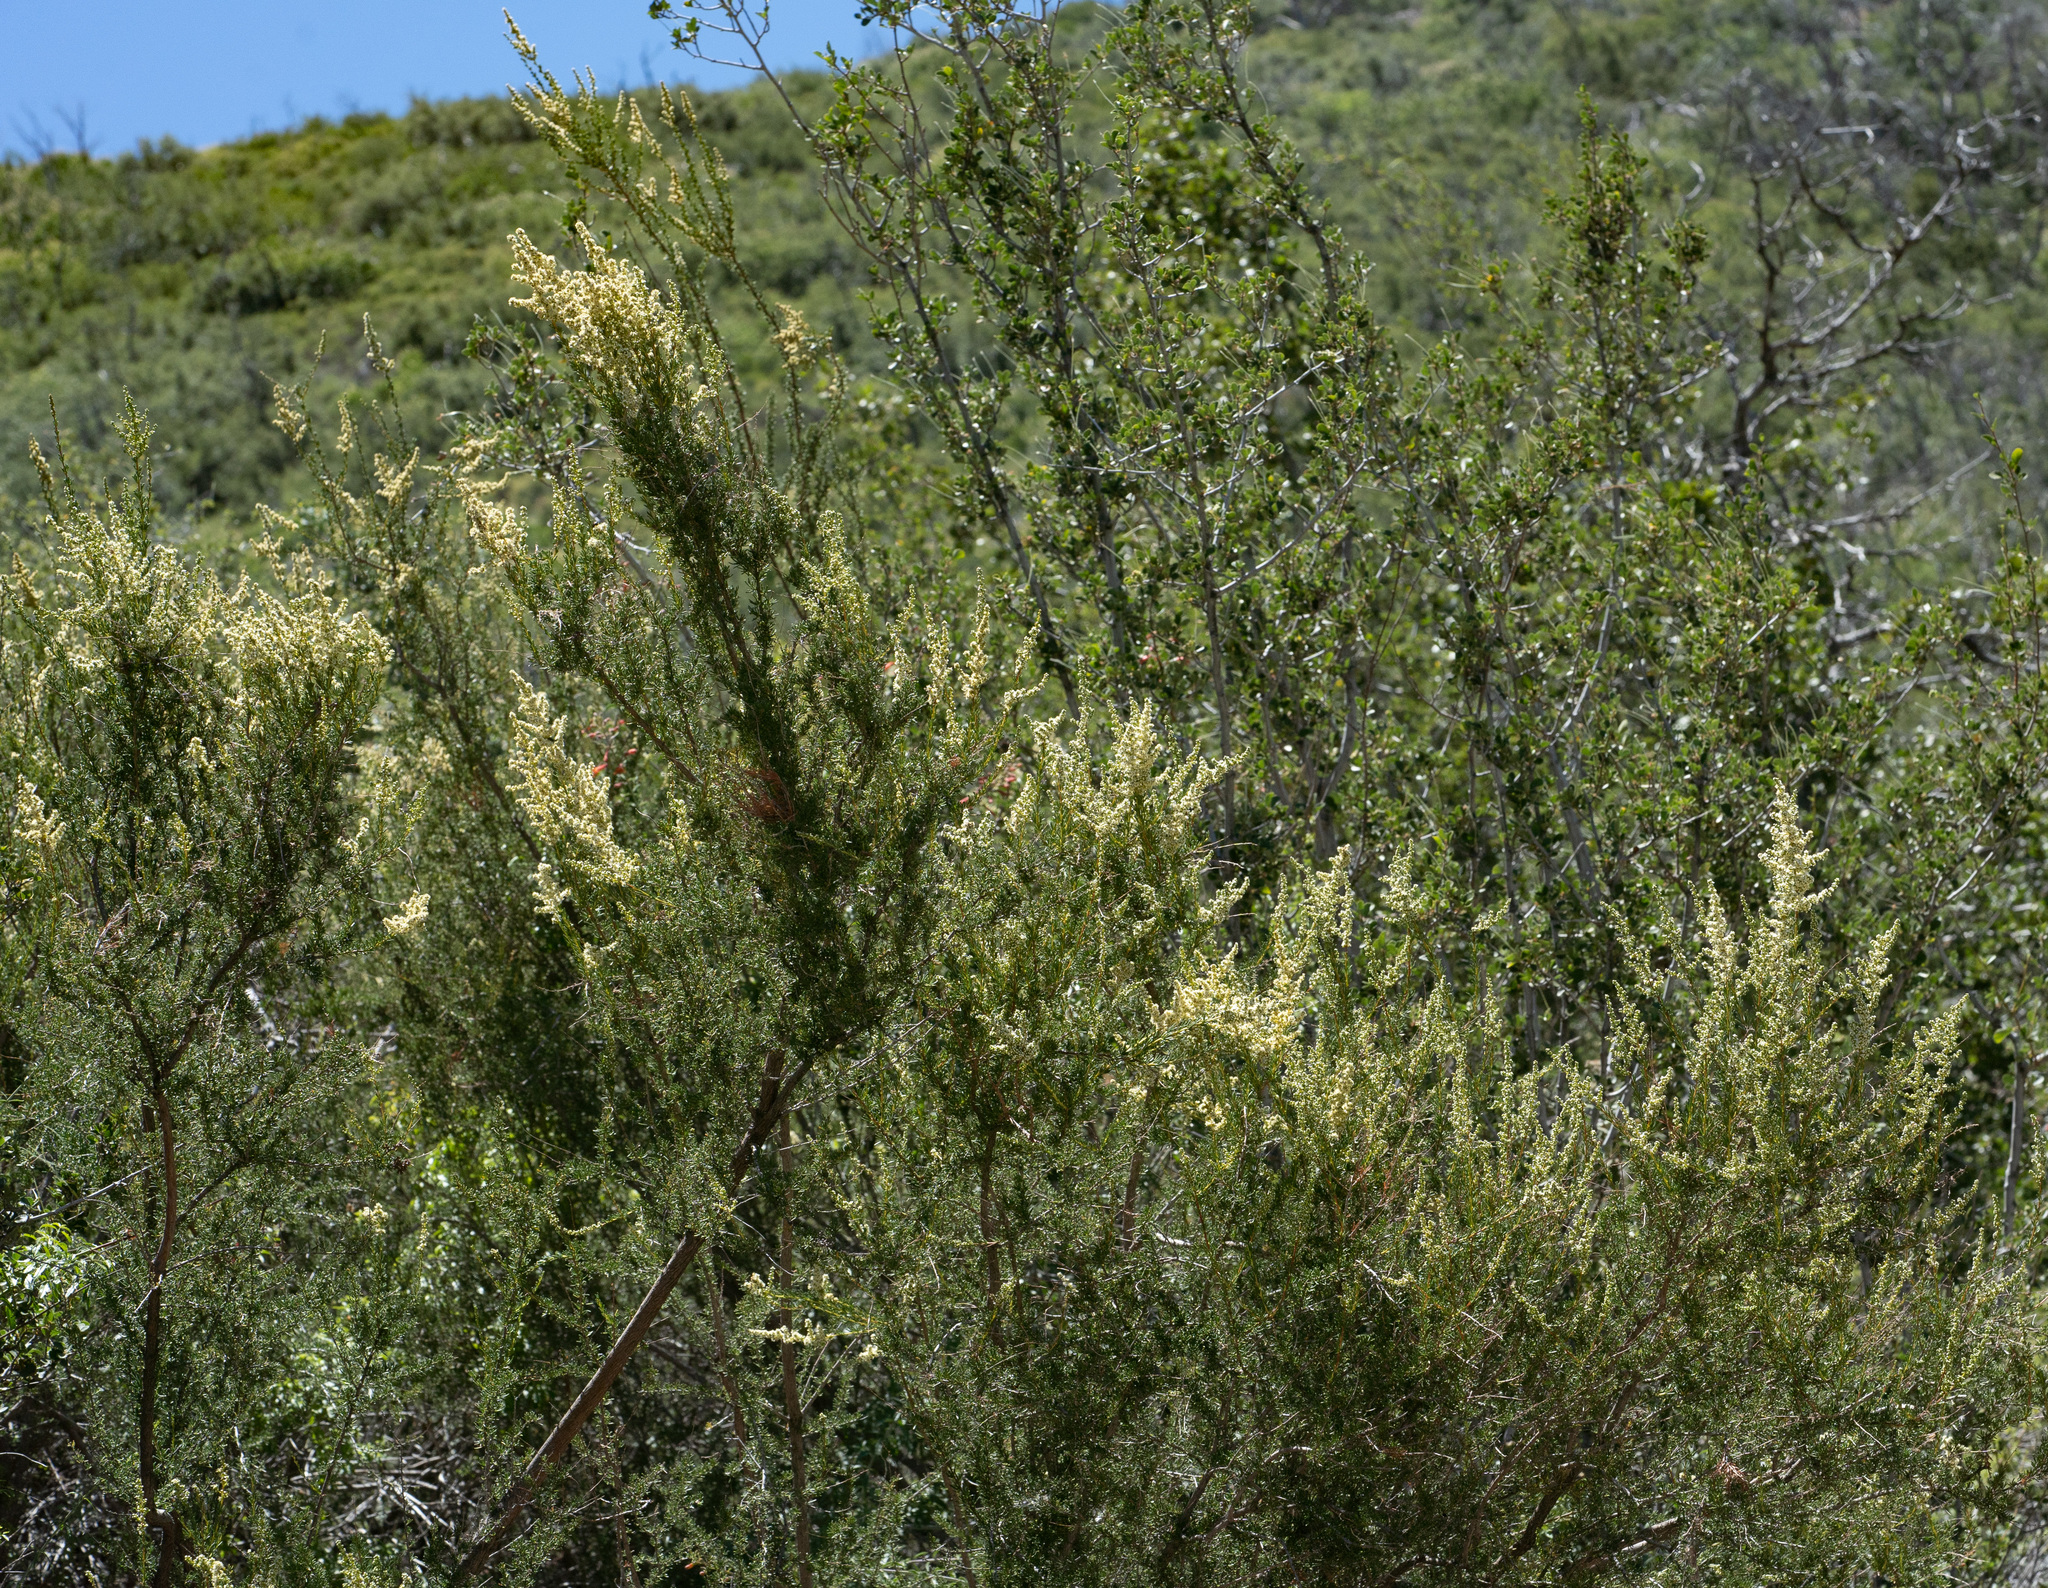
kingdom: Plantae
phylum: Tracheophyta
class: Magnoliopsida
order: Rosales
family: Rosaceae
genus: Adenostoma
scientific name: Adenostoma fasciculatum
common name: Chamise
